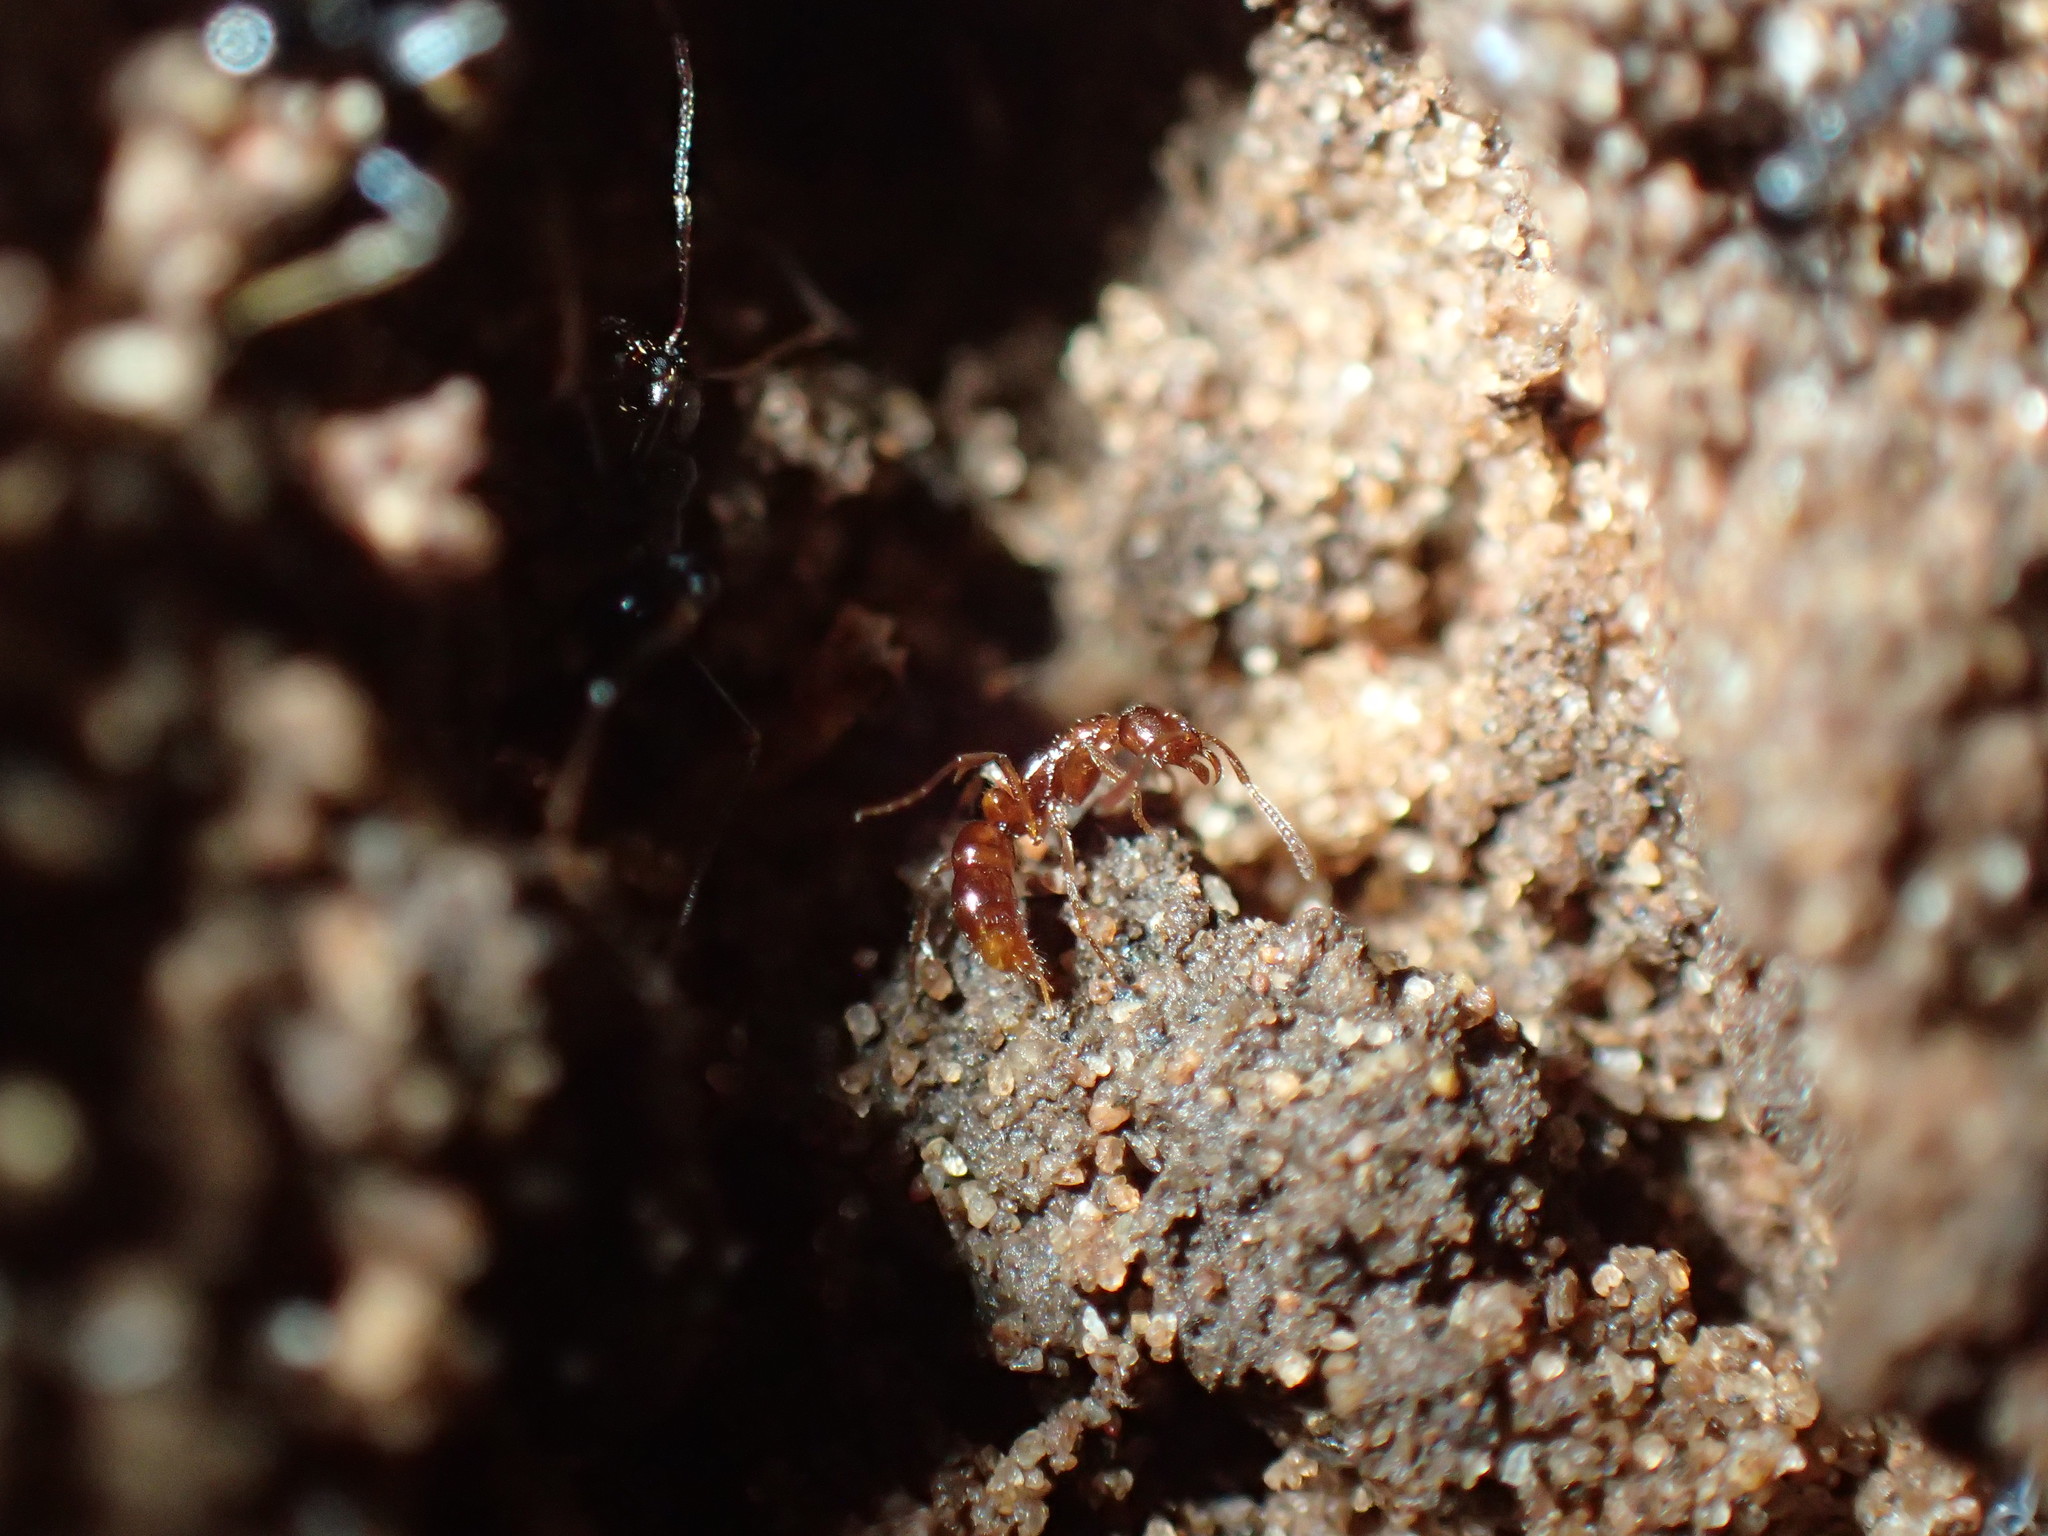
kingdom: Animalia
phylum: Arthropoda
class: Insecta
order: Hymenoptera
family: Formicidae
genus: Hypoponera
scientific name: Hypoponera punctatissima
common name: Pantropical mini-ponerine ant
